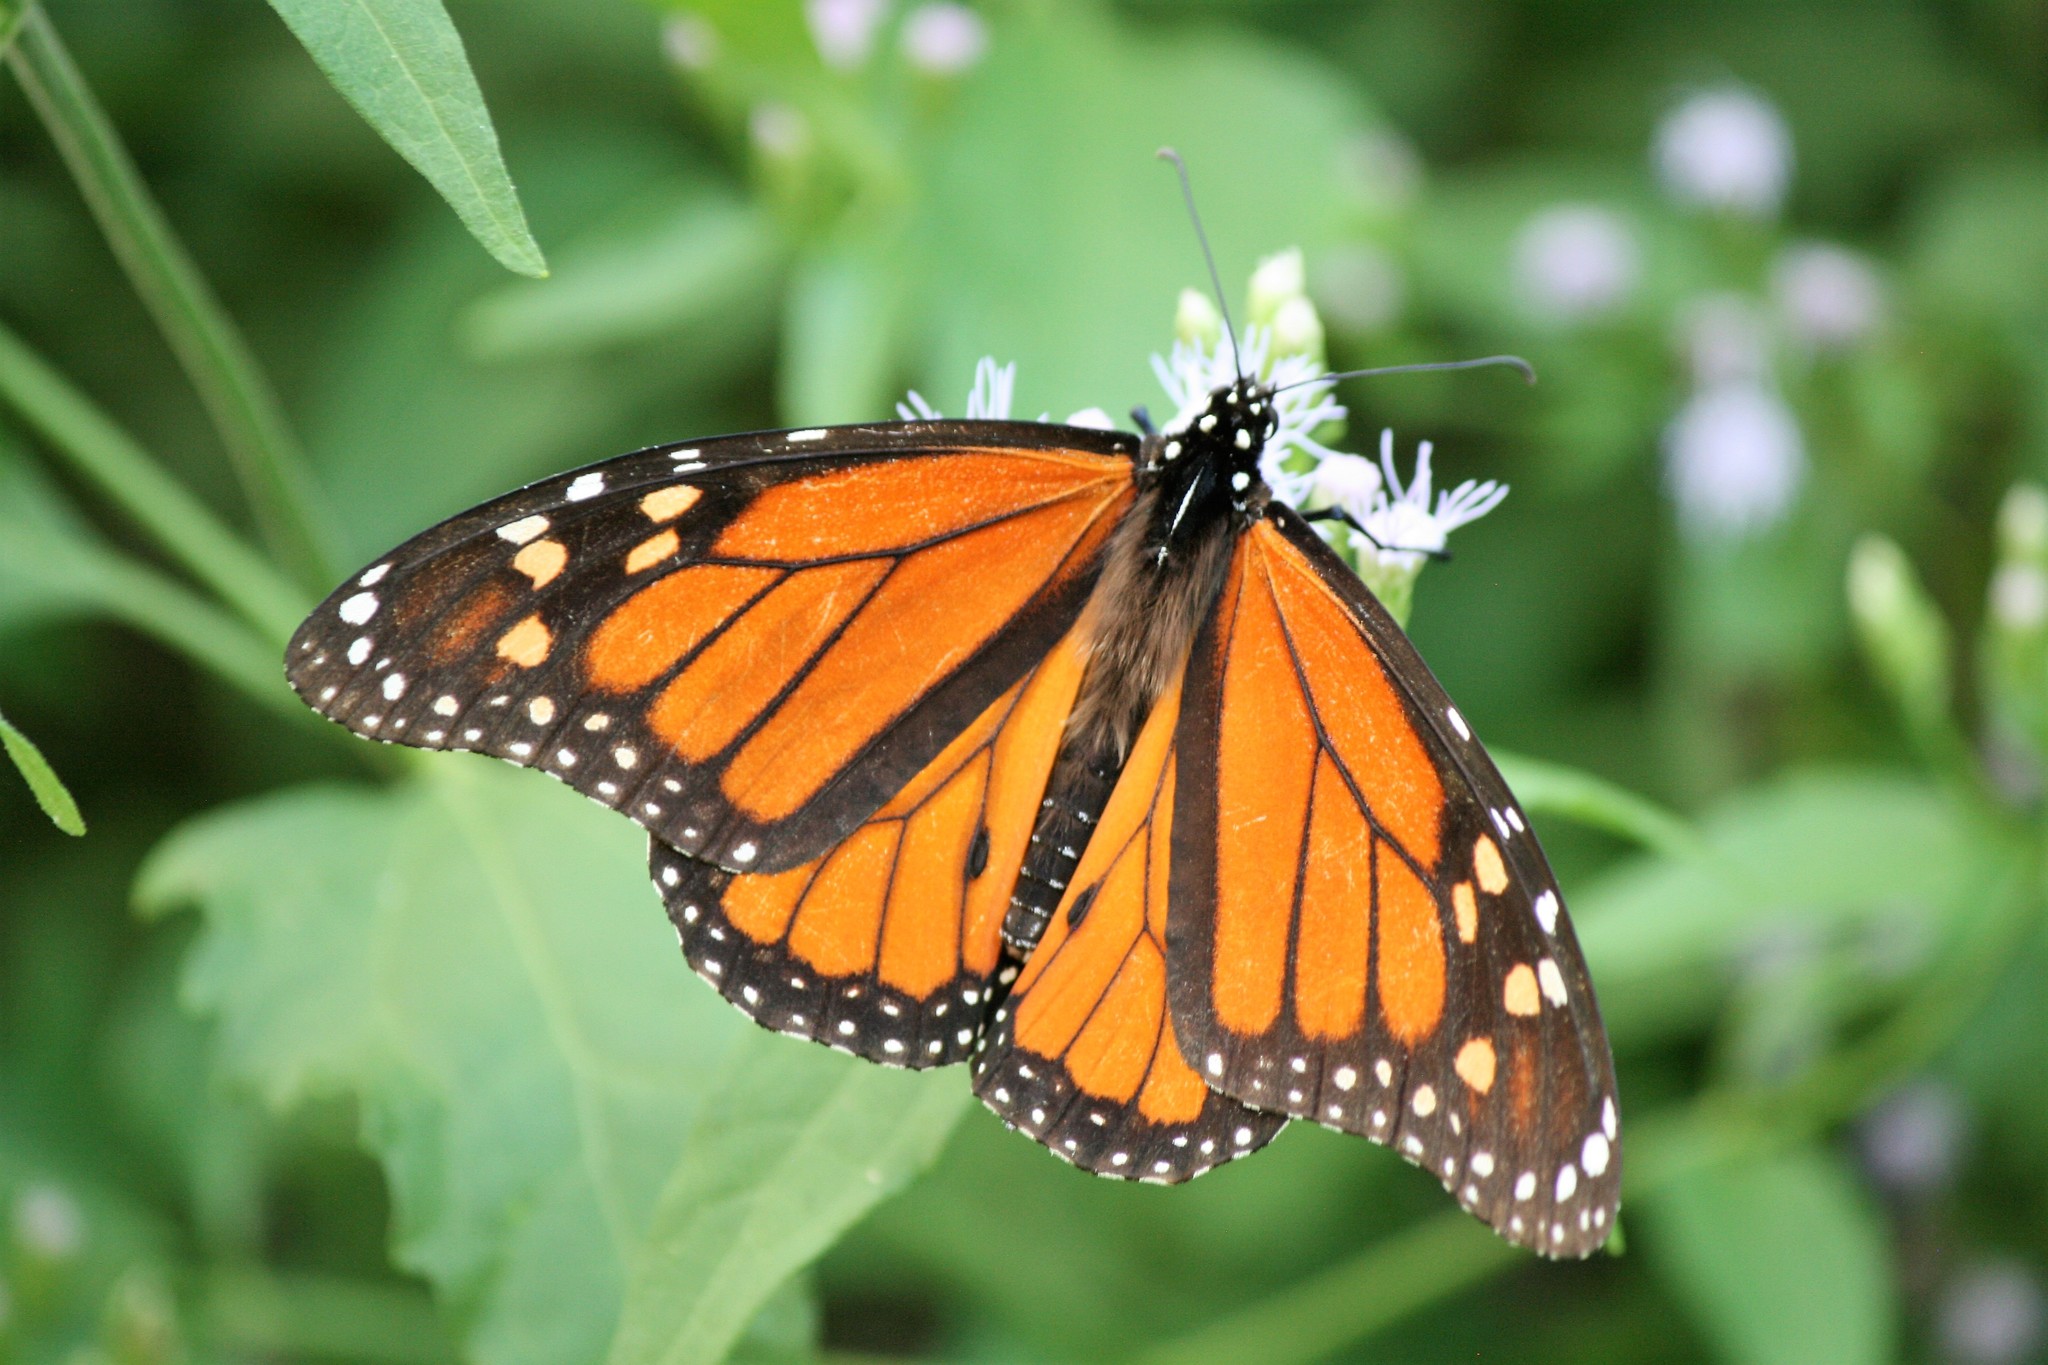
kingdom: Animalia
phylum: Arthropoda
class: Insecta
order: Lepidoptera
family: Nymphalidae
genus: Danaus
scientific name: Danaus plexippus
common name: Monarch
